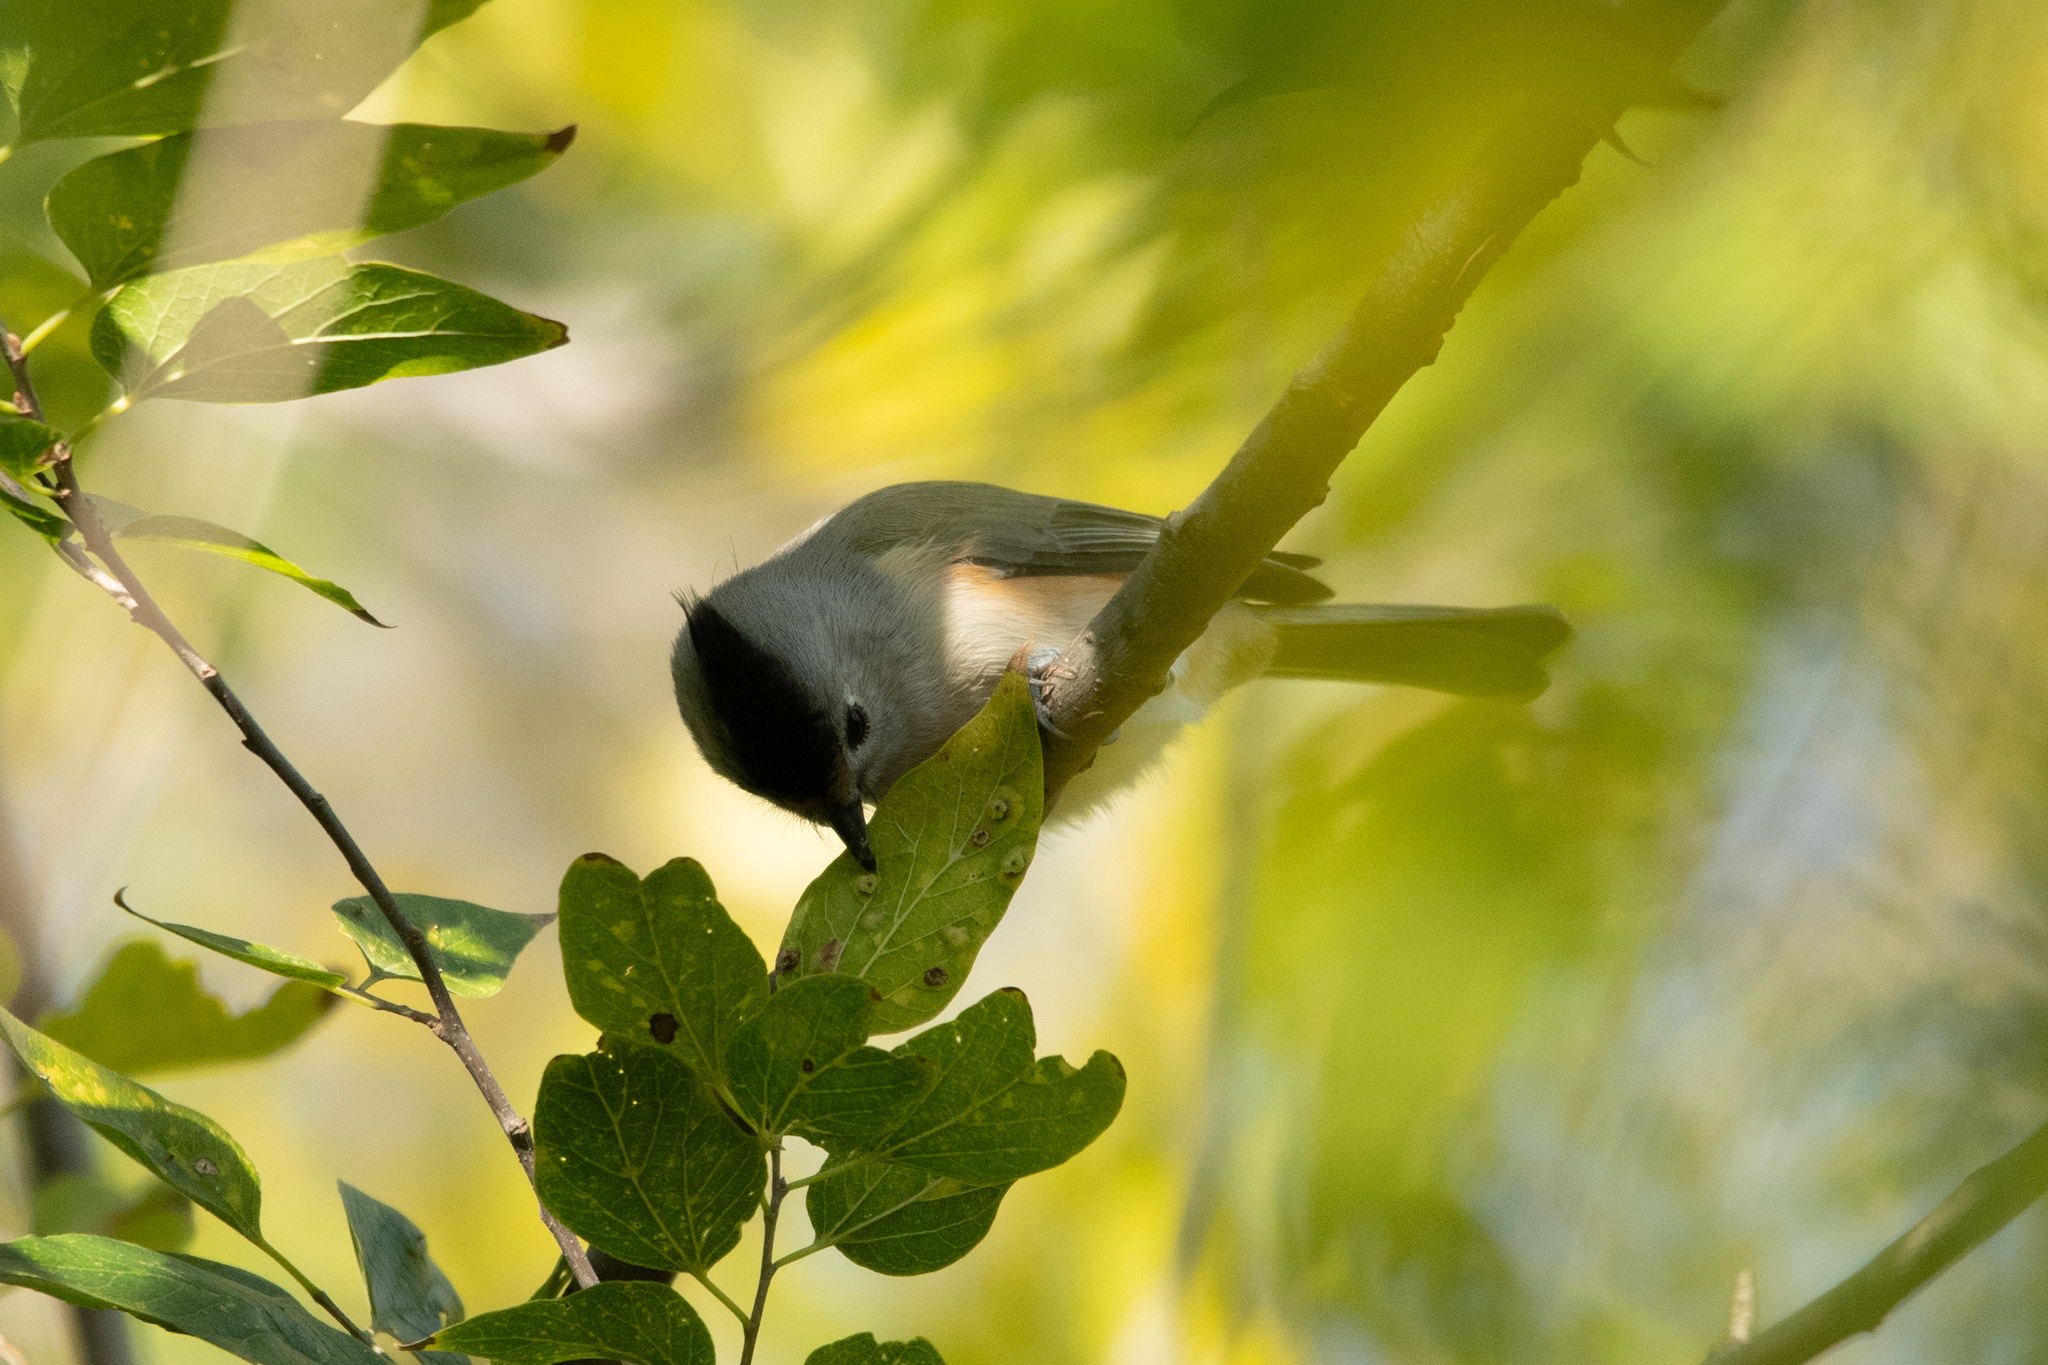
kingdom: Animalia
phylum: Chordata
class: Aves
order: Passeriformes
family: Paridae
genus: Baeolophus
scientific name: Baeolophus atricristatus
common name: Black-crested titmouse
